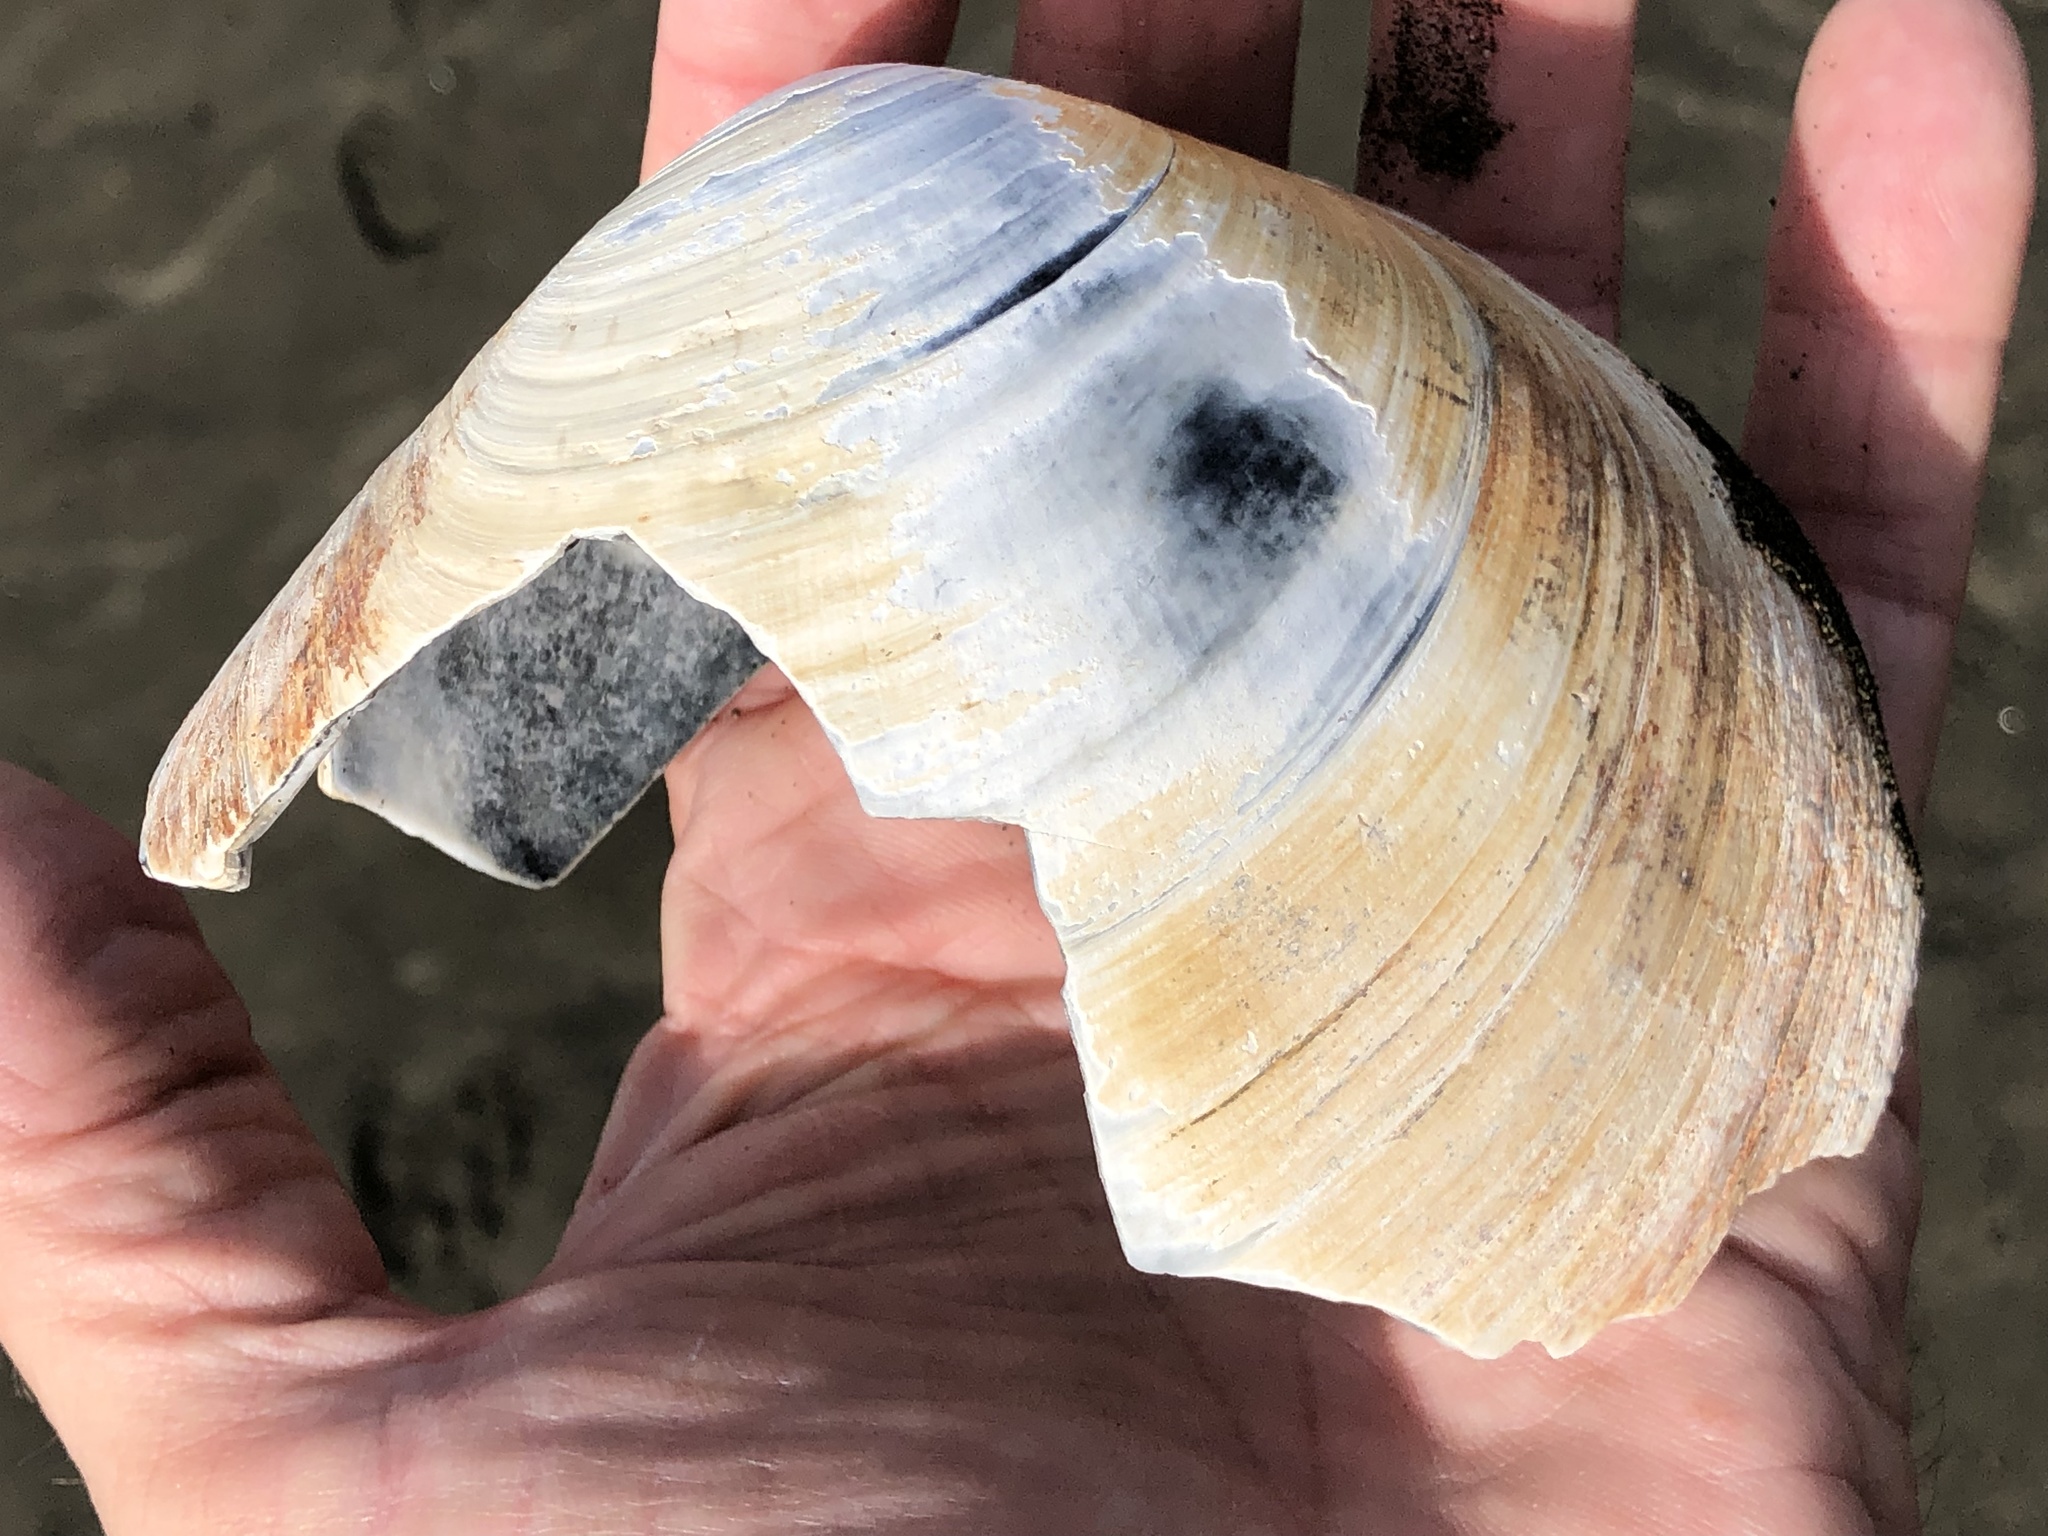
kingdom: Animalia
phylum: Mollusca
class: Bivalvia
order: Venerida
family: Mactridae
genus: Tresus
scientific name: Tresus allomyax
